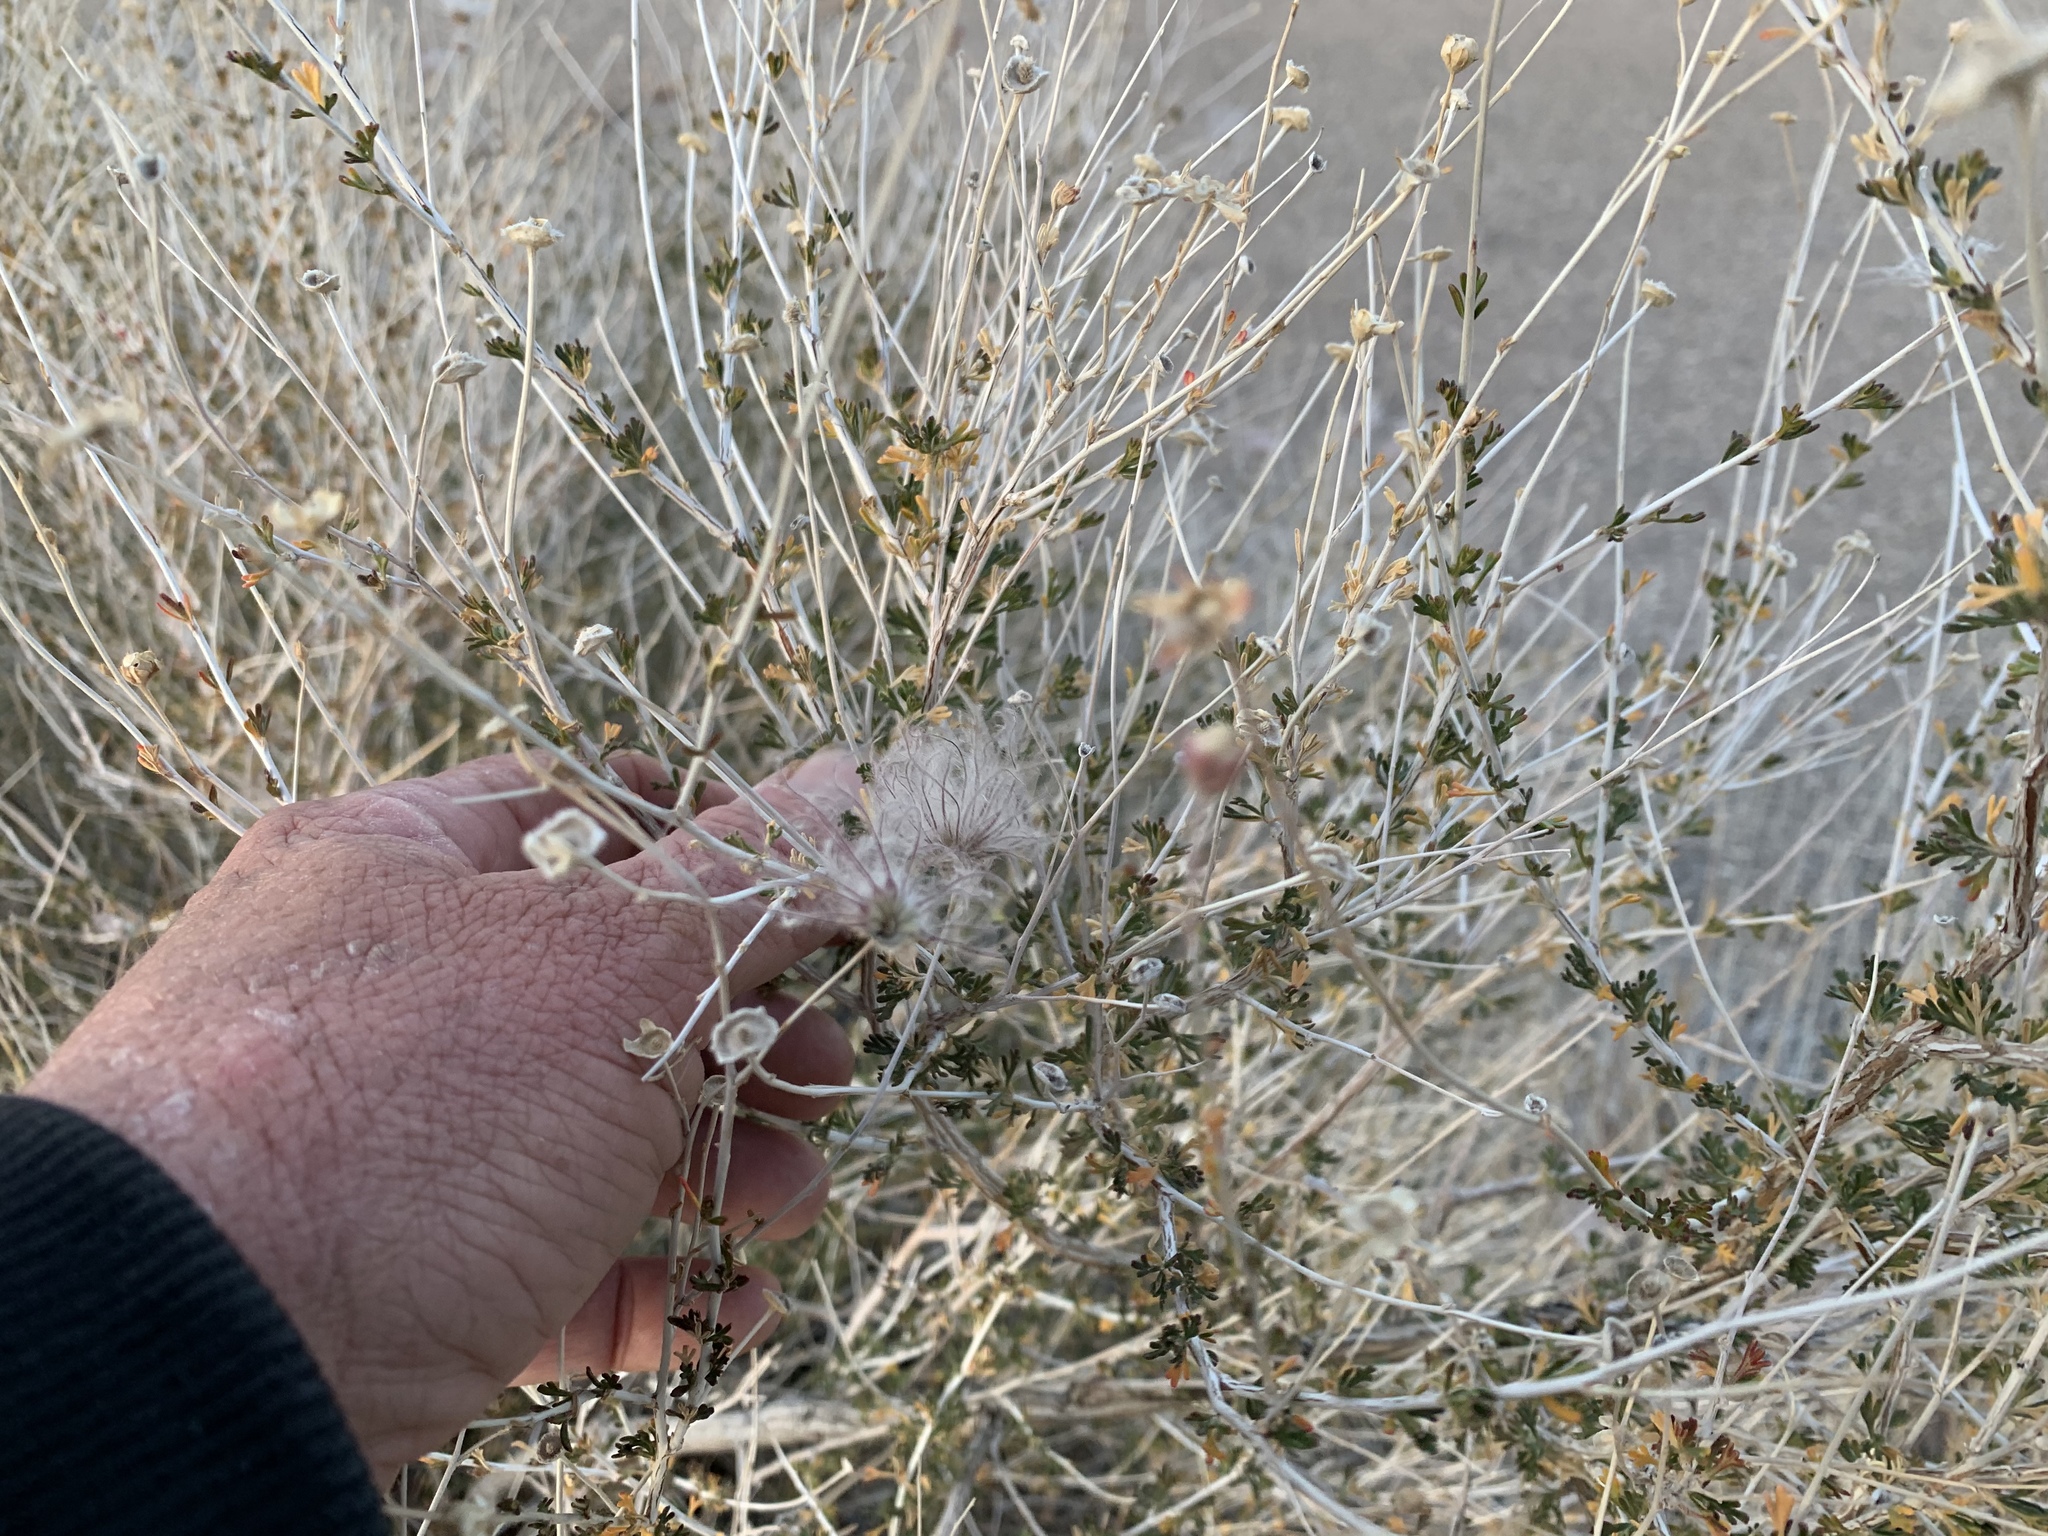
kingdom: Plantae
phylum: Tracheophyta
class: Magnoliopsida
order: Rosales
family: Rosaceae
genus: Fallugia
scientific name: Fallugia paradoxa
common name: Apache-plume
